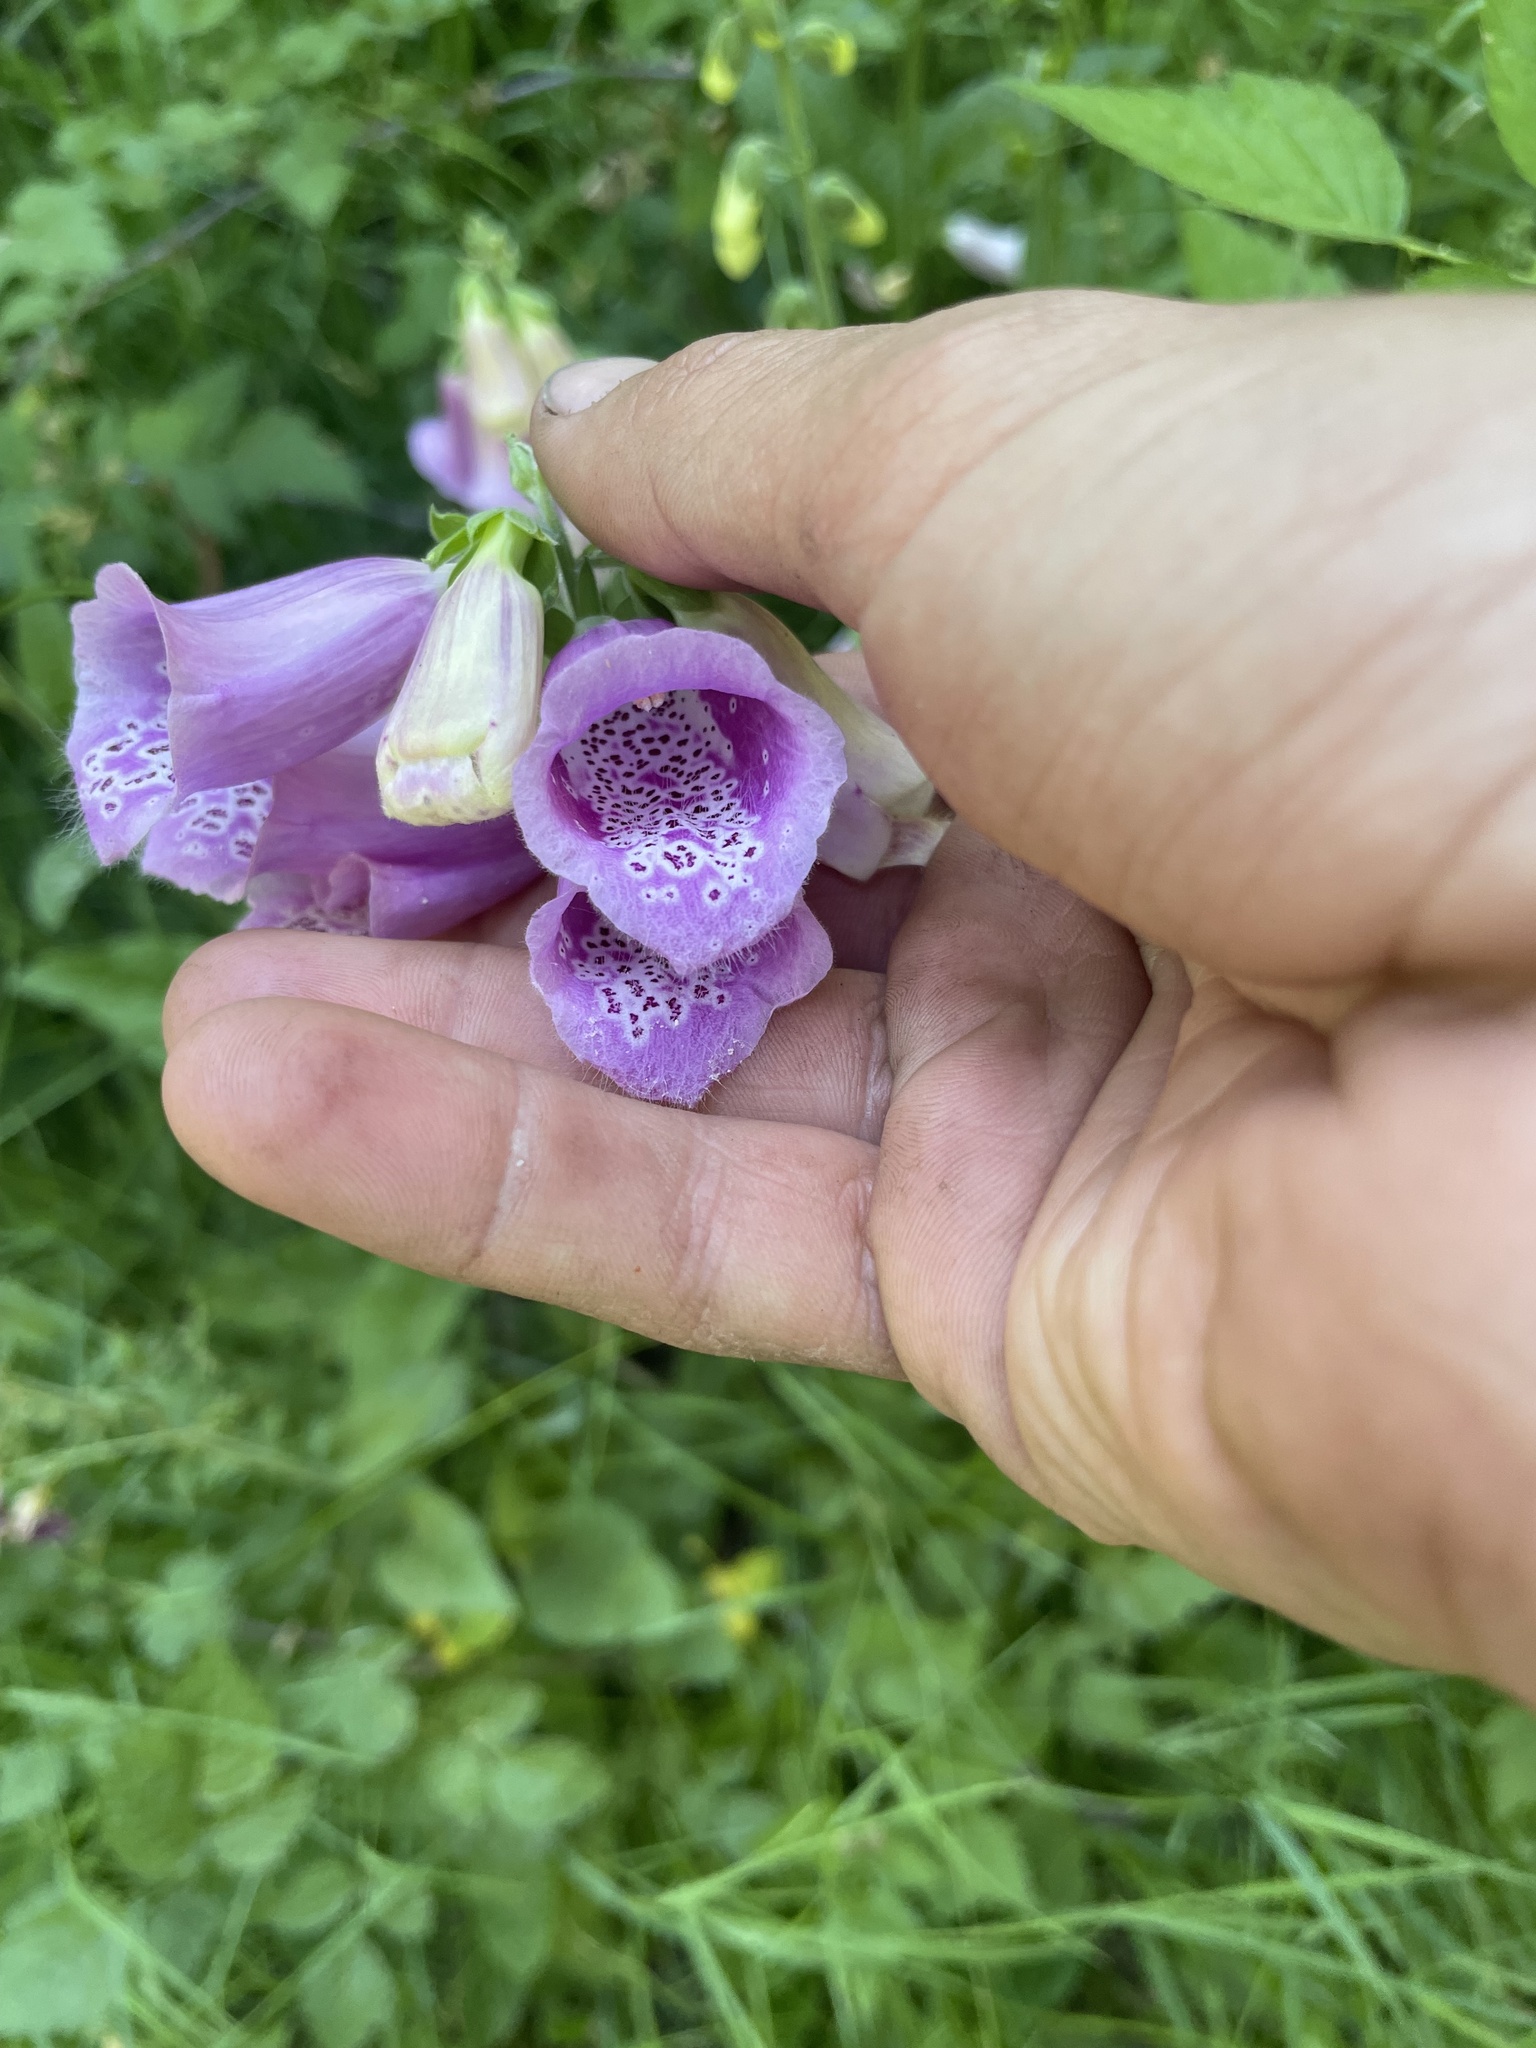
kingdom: Plantae
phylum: Tracheophyta
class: Magnoliopsida
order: Lamiales
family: Plantaginaceae
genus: Digitalis
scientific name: Digitalis purpurea
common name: Foxglove
